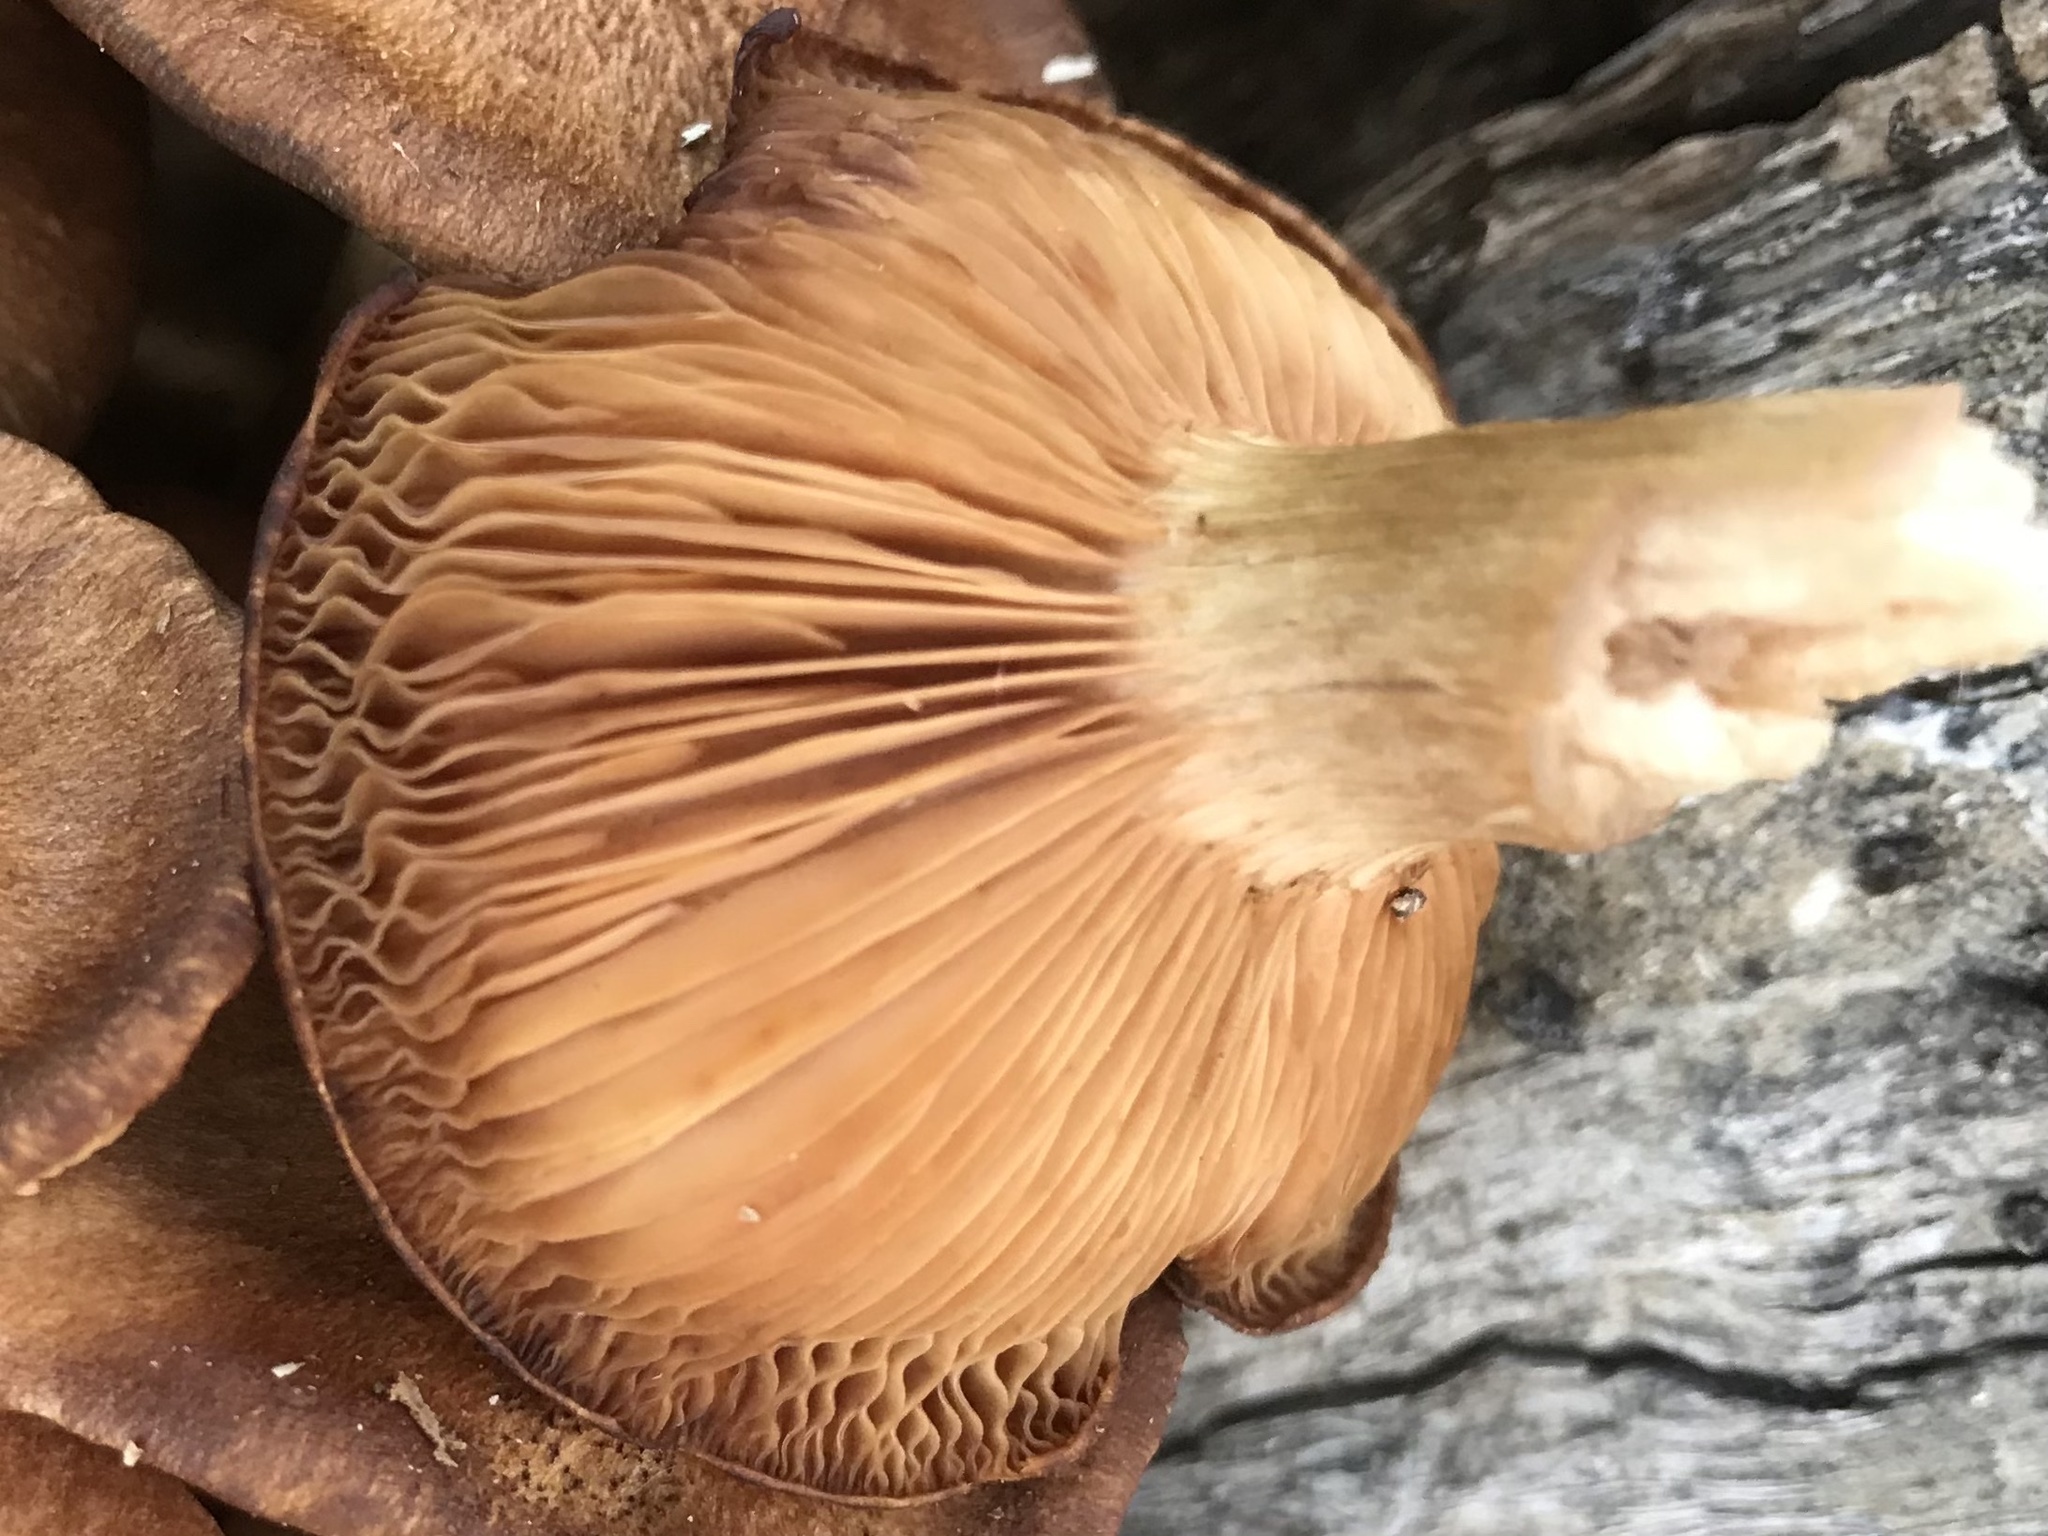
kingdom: Fungi
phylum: Basidiomycota
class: Agaricomycetes
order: Agaricales
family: Physalacriaceae
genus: Desarmillaria
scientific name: Desarmillaria caespitosa
